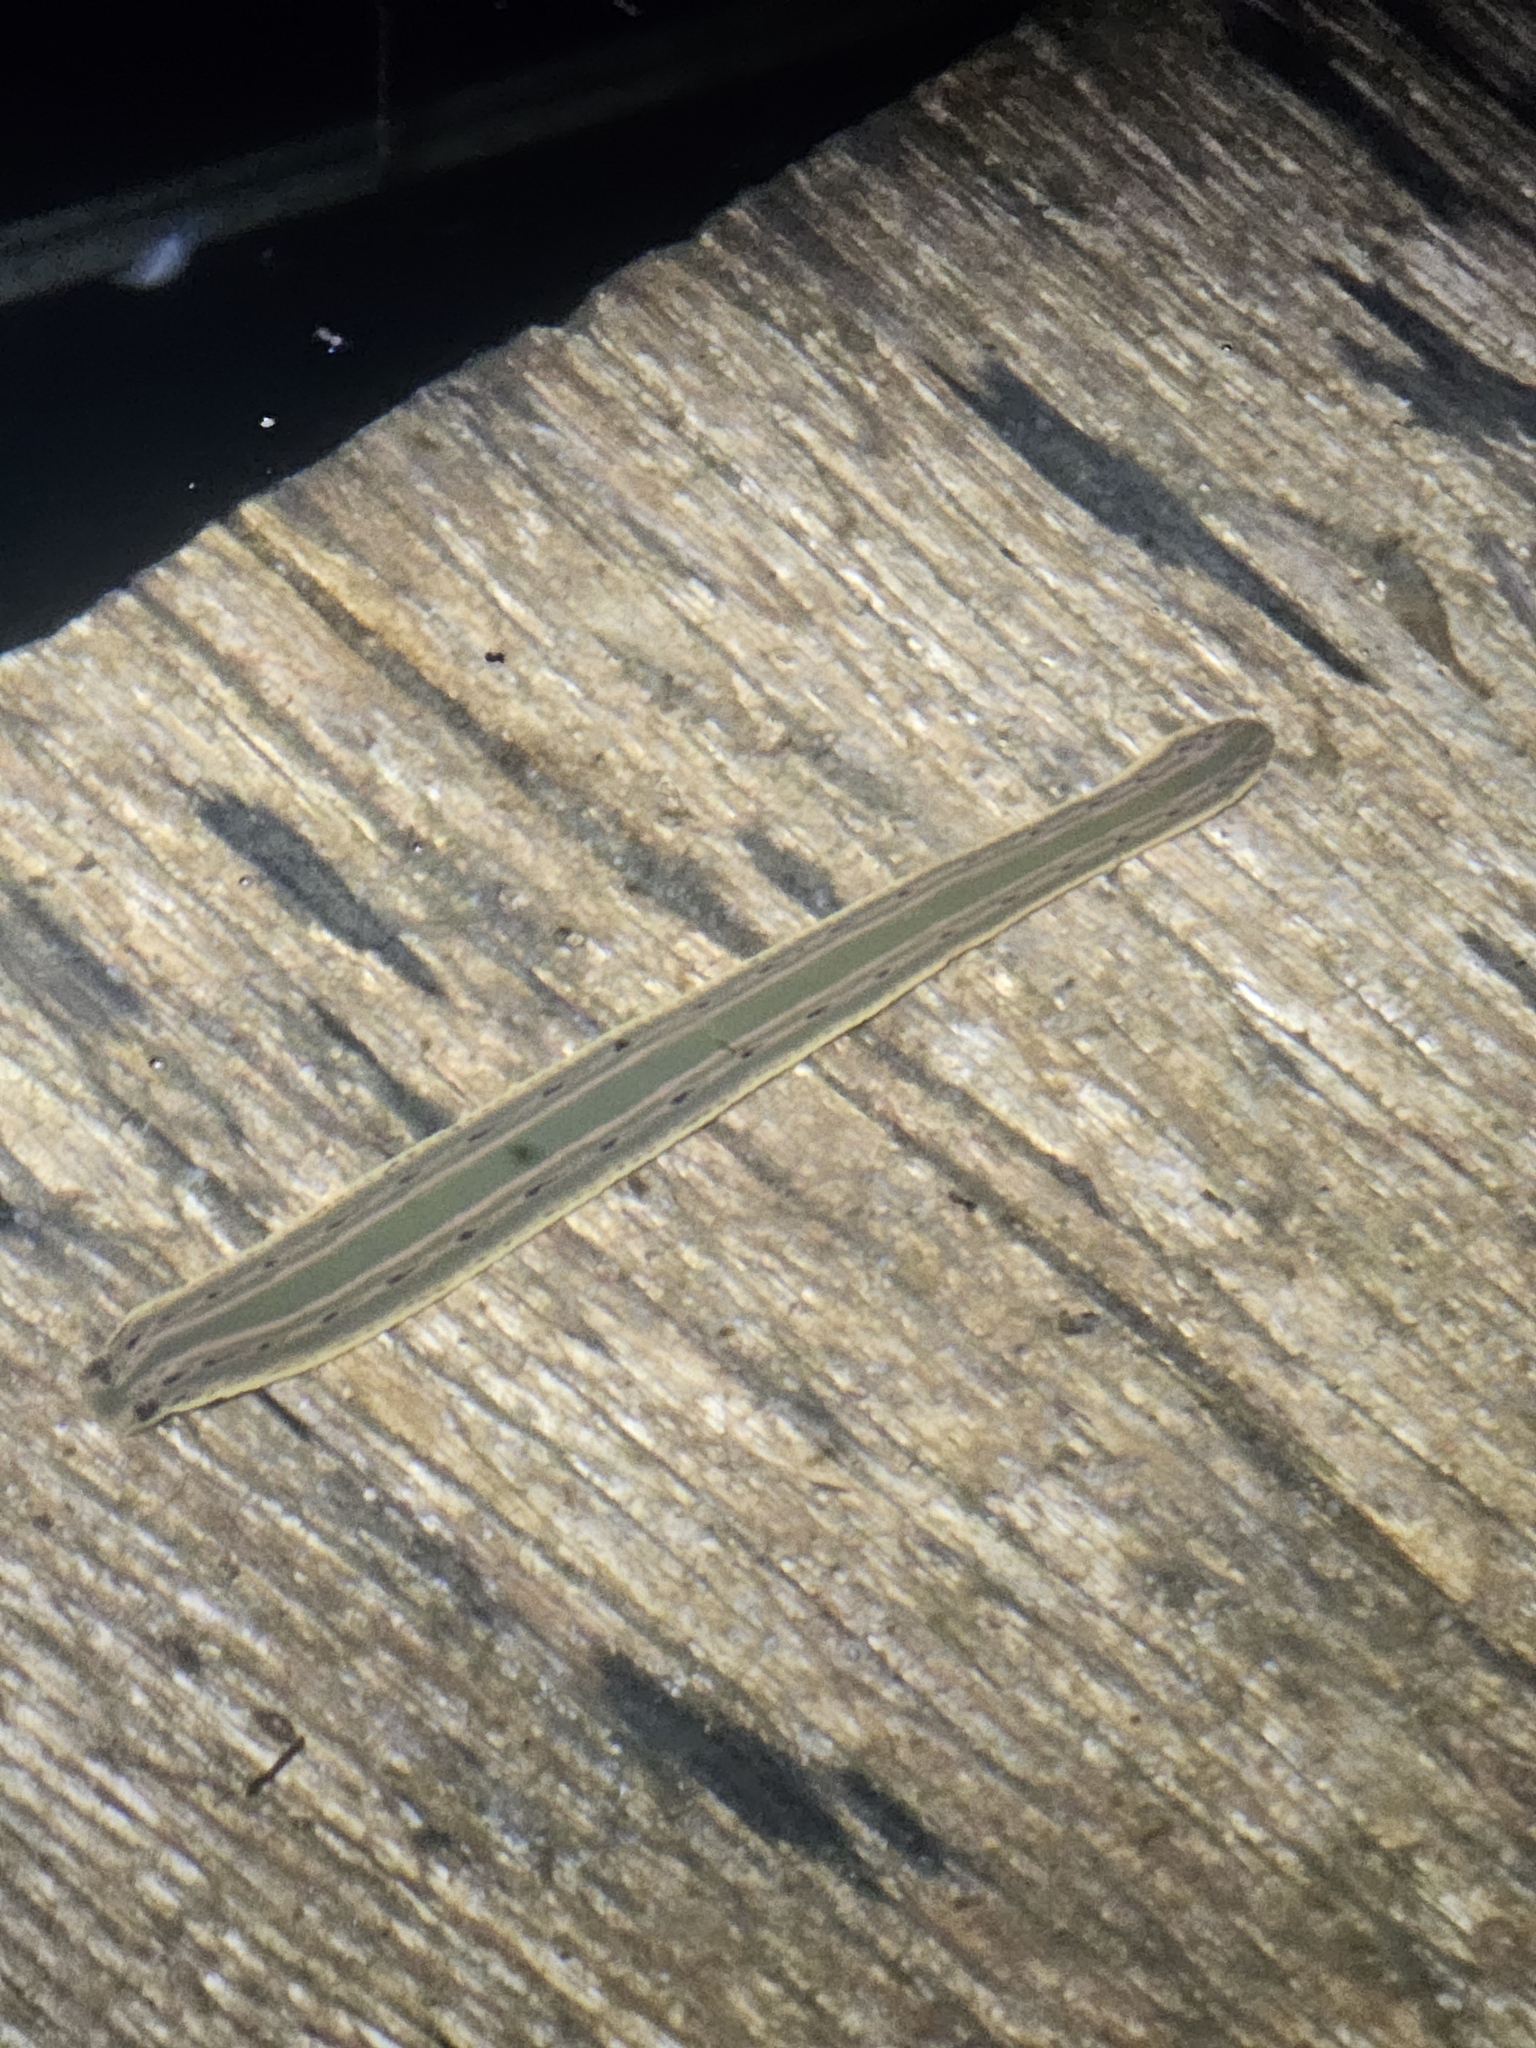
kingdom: Animalia
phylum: Annelida
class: Clitellata
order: Arhynchobdellida
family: Hirudinidae
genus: Hirudo
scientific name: Hirudo medicinalis
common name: Medicinal leech
